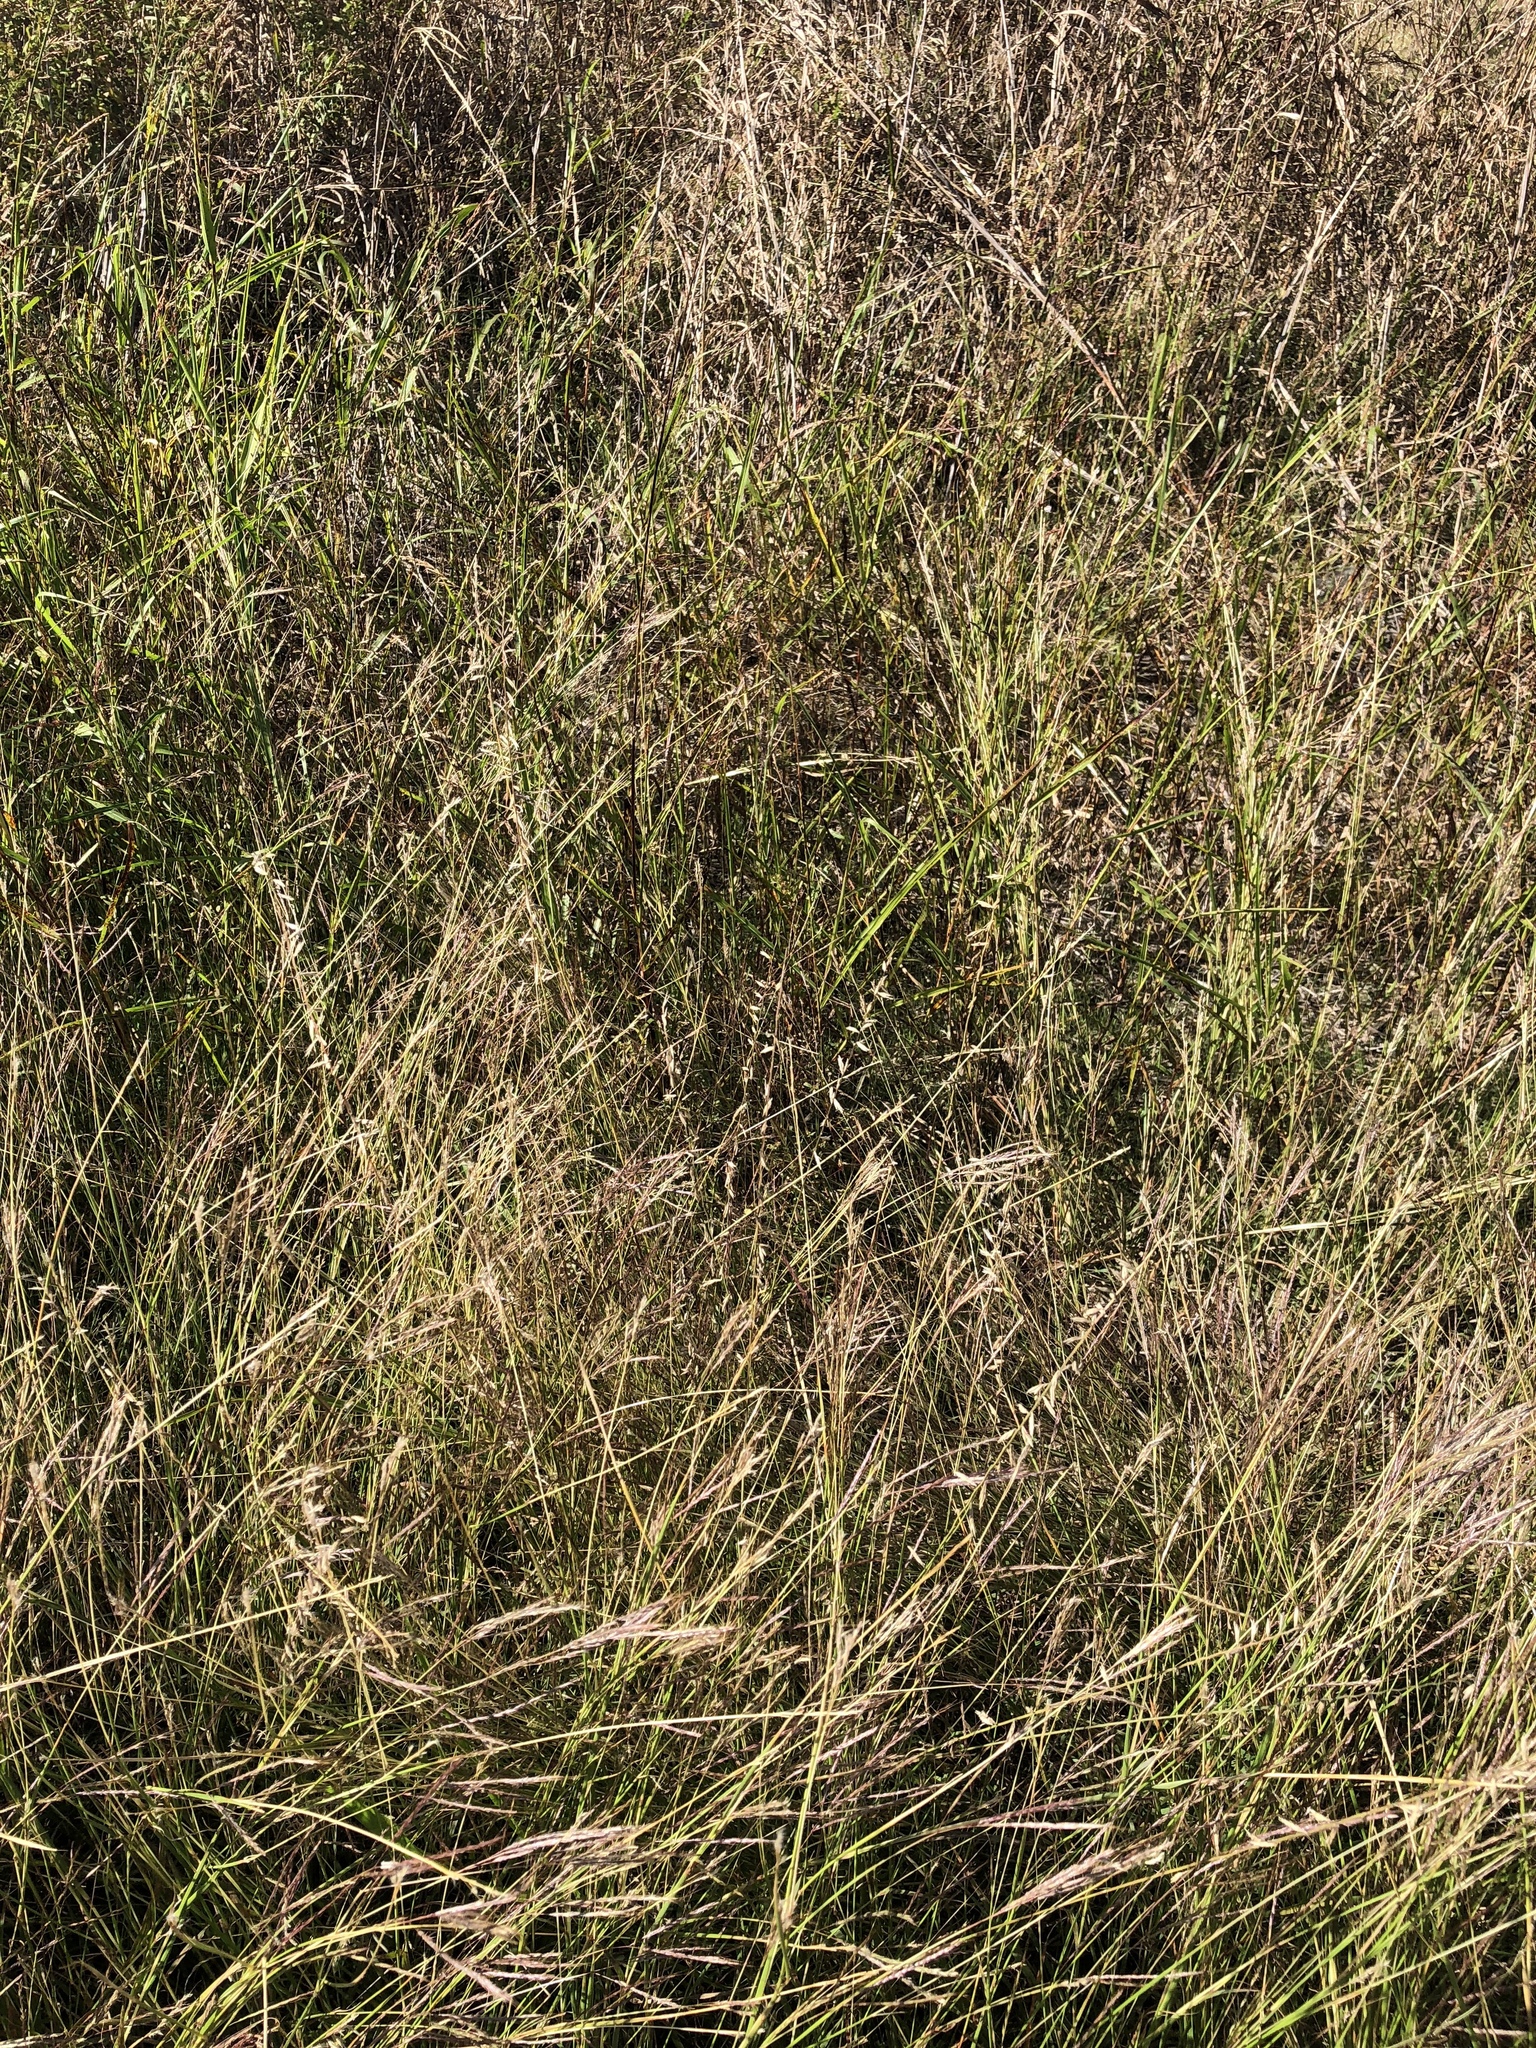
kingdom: Plantae
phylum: Tracheophyta
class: Liliopsida
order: Poales
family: Poaceae
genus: Bouteloua
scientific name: Bouteloua curtipendula
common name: Side-oats grama
